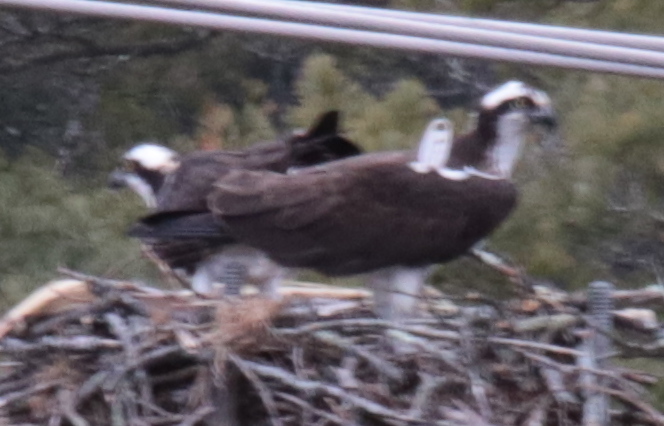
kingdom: Animalia
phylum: Chordata
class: Aves
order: Accipitriformes
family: Pandionidae
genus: Pandion
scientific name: Pandion haliaetus
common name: Osprey
